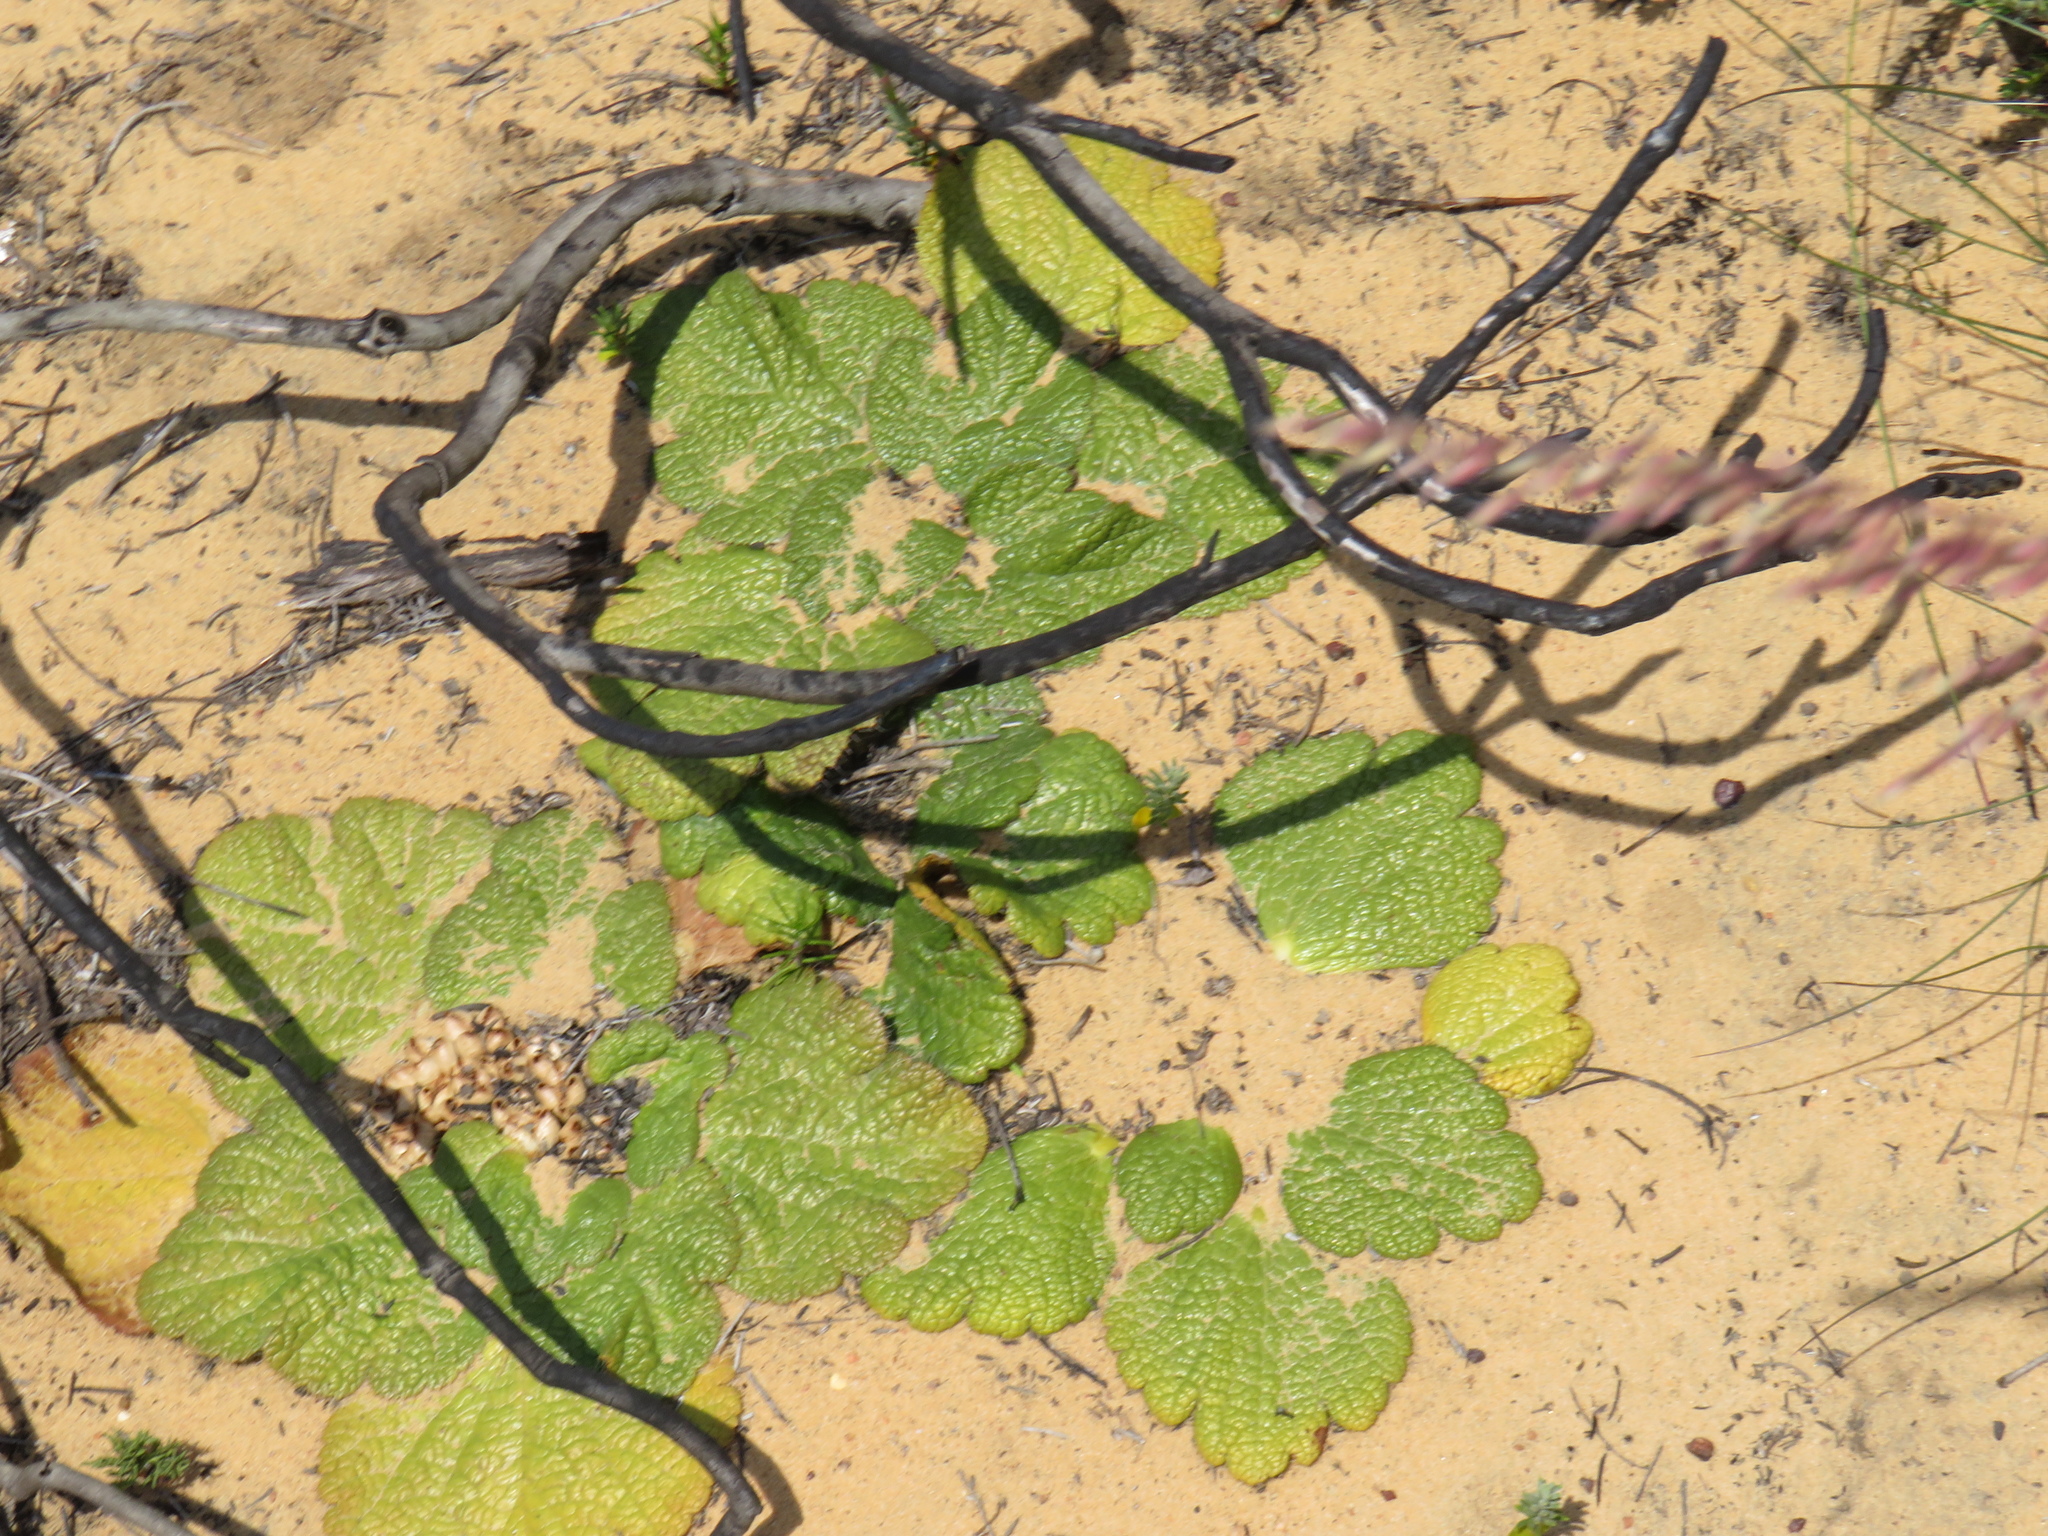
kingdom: Plantae
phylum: Tracheophyta
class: Magnoliopsida
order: Apiales
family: Apiaceae
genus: Arctopus
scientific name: Arctopus dregei
